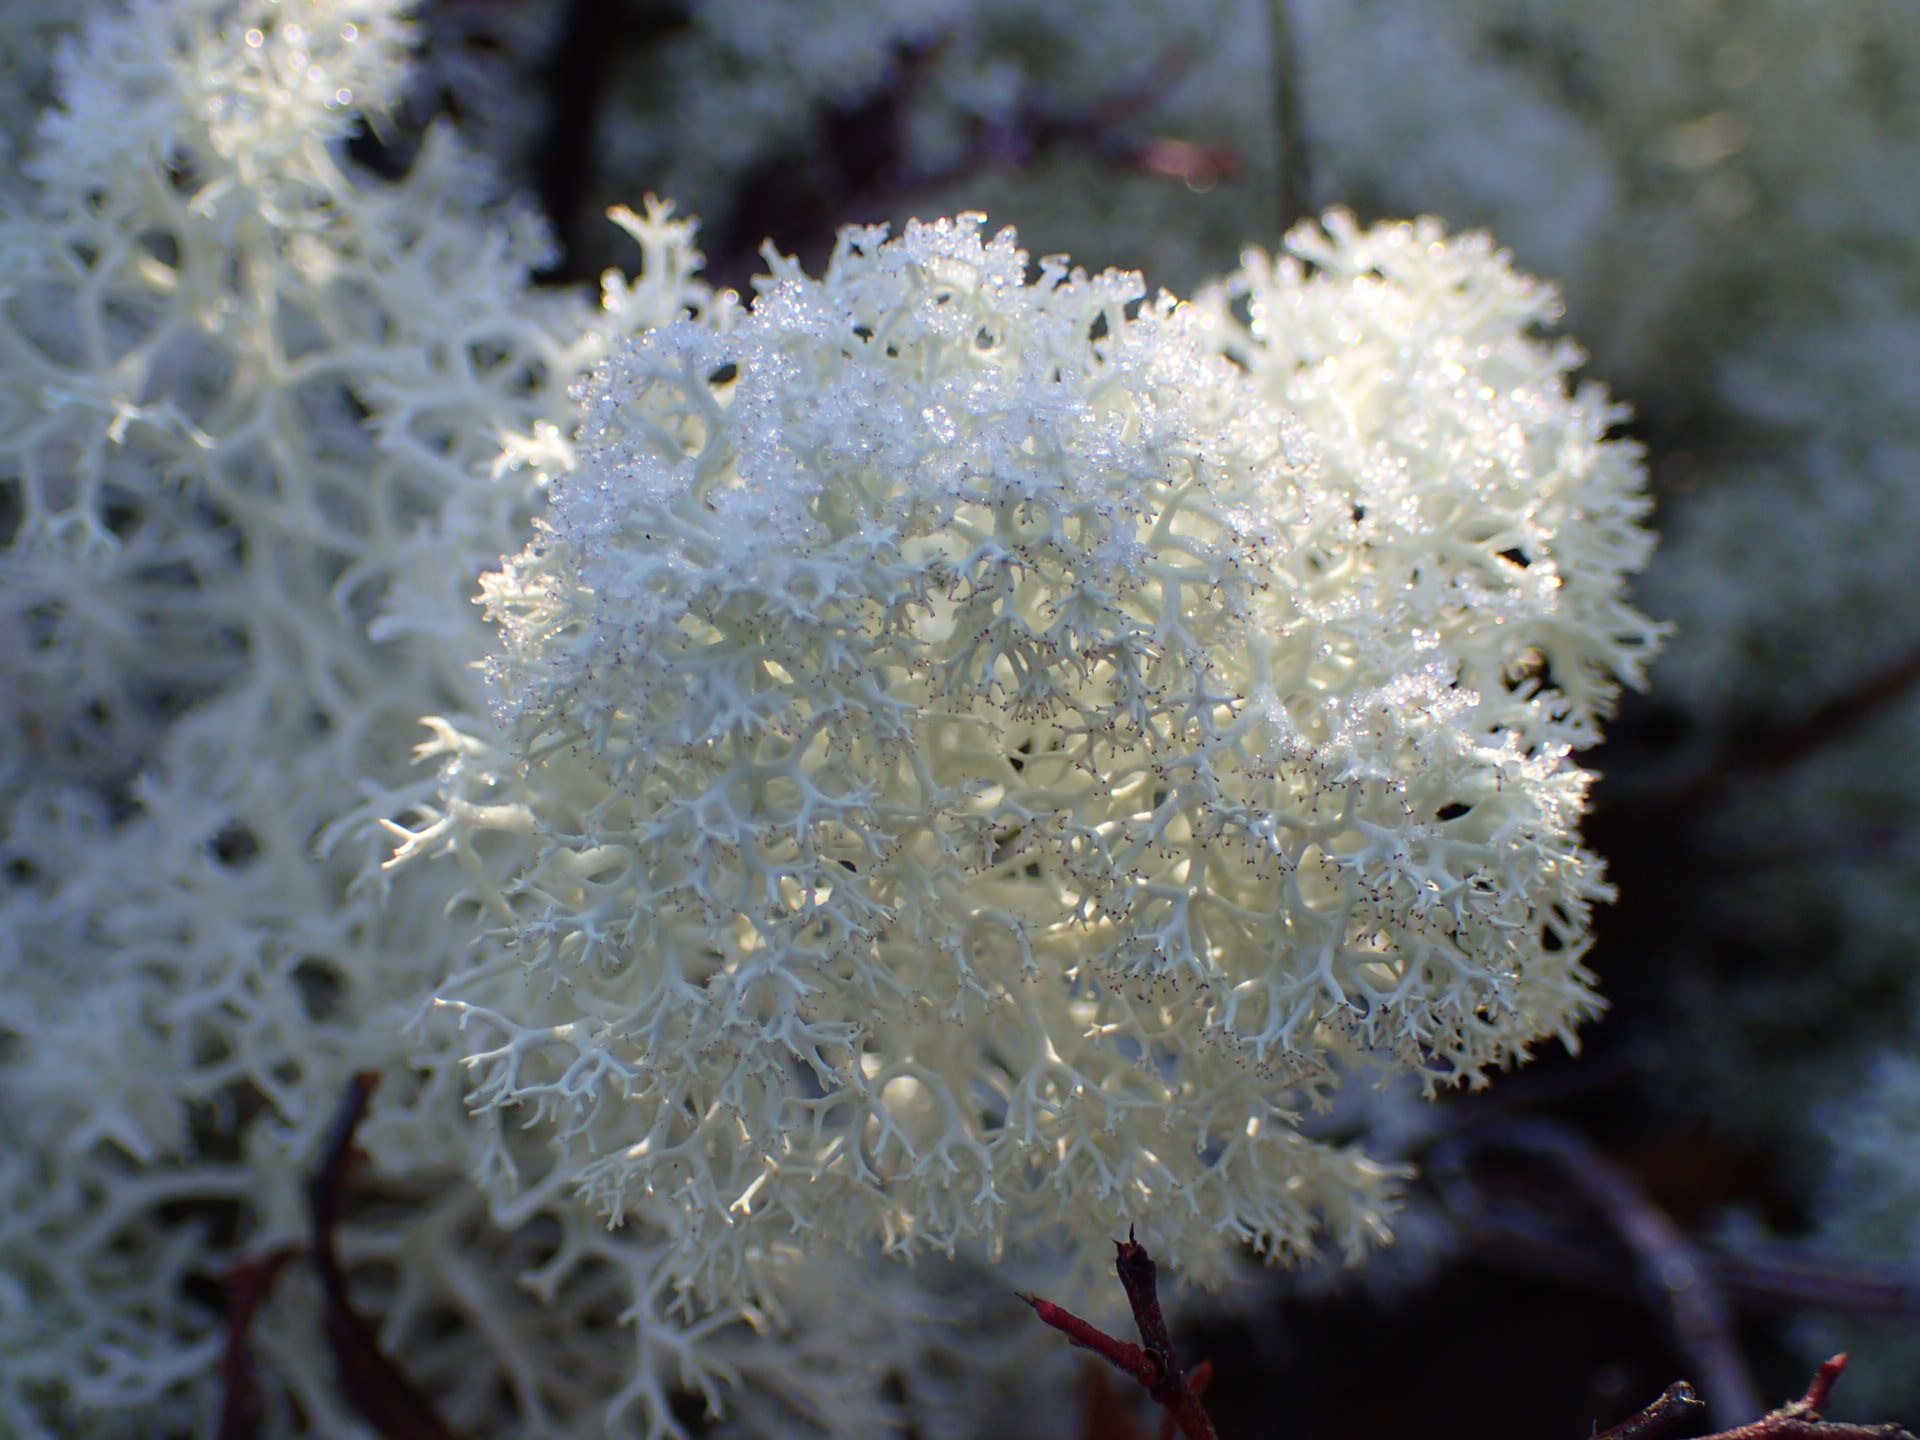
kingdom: Fungi
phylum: Ascomycota
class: Lecanoromycetes
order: Lecanorales
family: Cladoniaceae
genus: Cladonia
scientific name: Cladonia stellaris
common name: Star-tipped reindeer lichen
